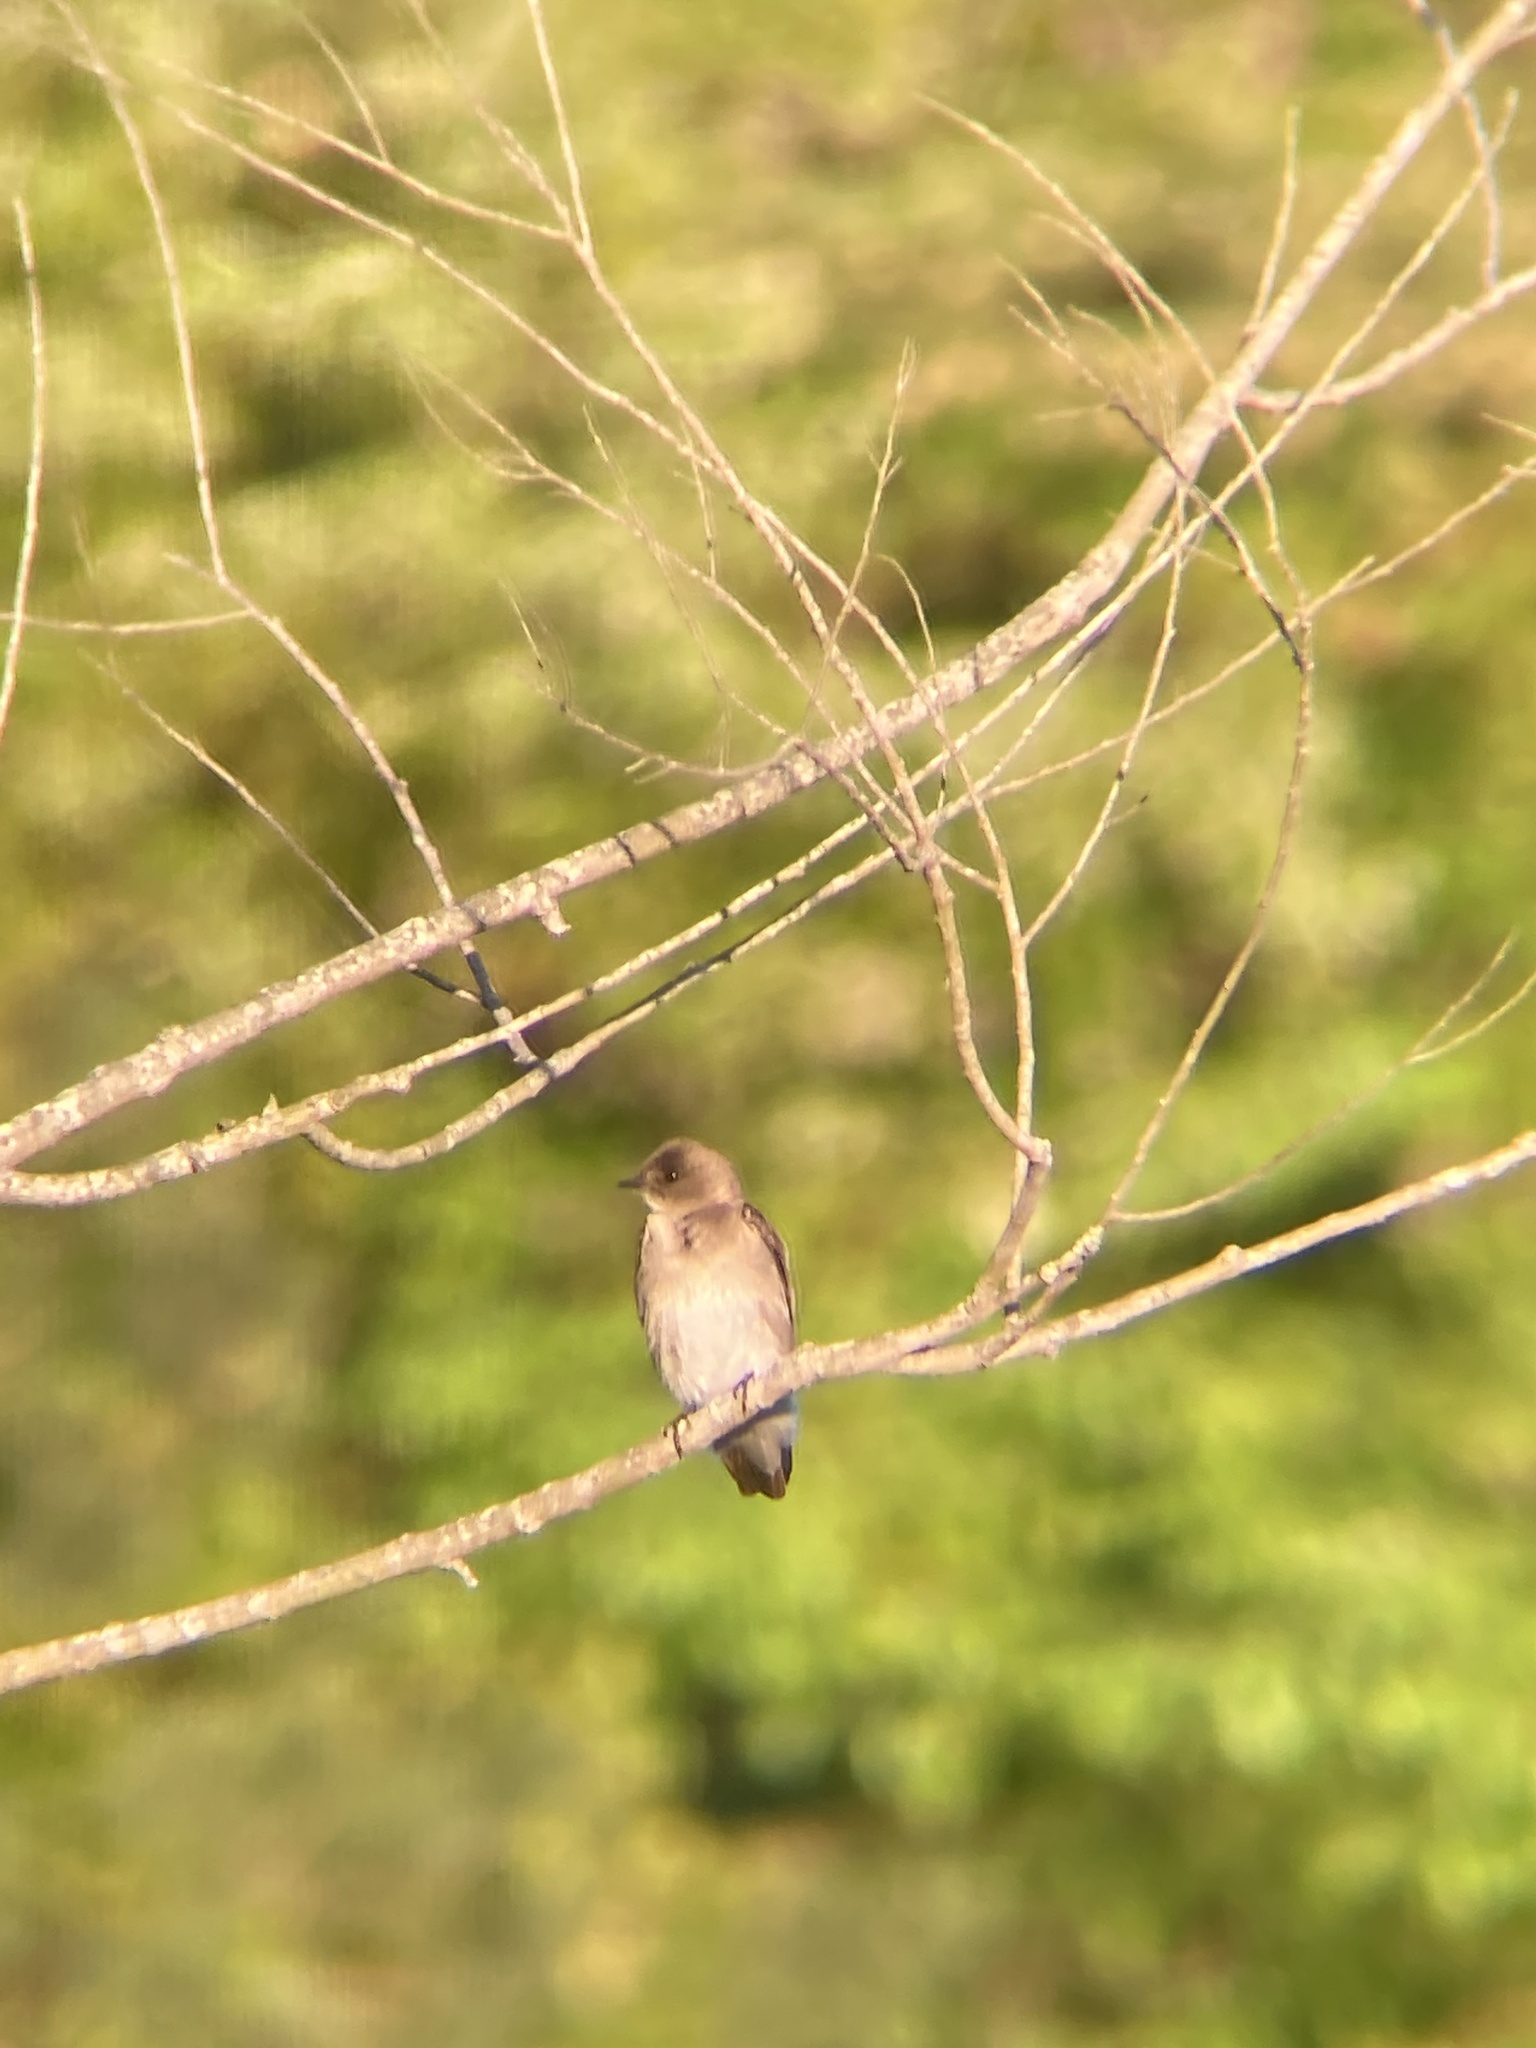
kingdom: Animalia
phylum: Chordata
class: Aves
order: Passeriformes
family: Hirundinidae
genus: Stelgidopteryx
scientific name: Stelgidopteryx serripennis
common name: Northern rough-winged swallow
